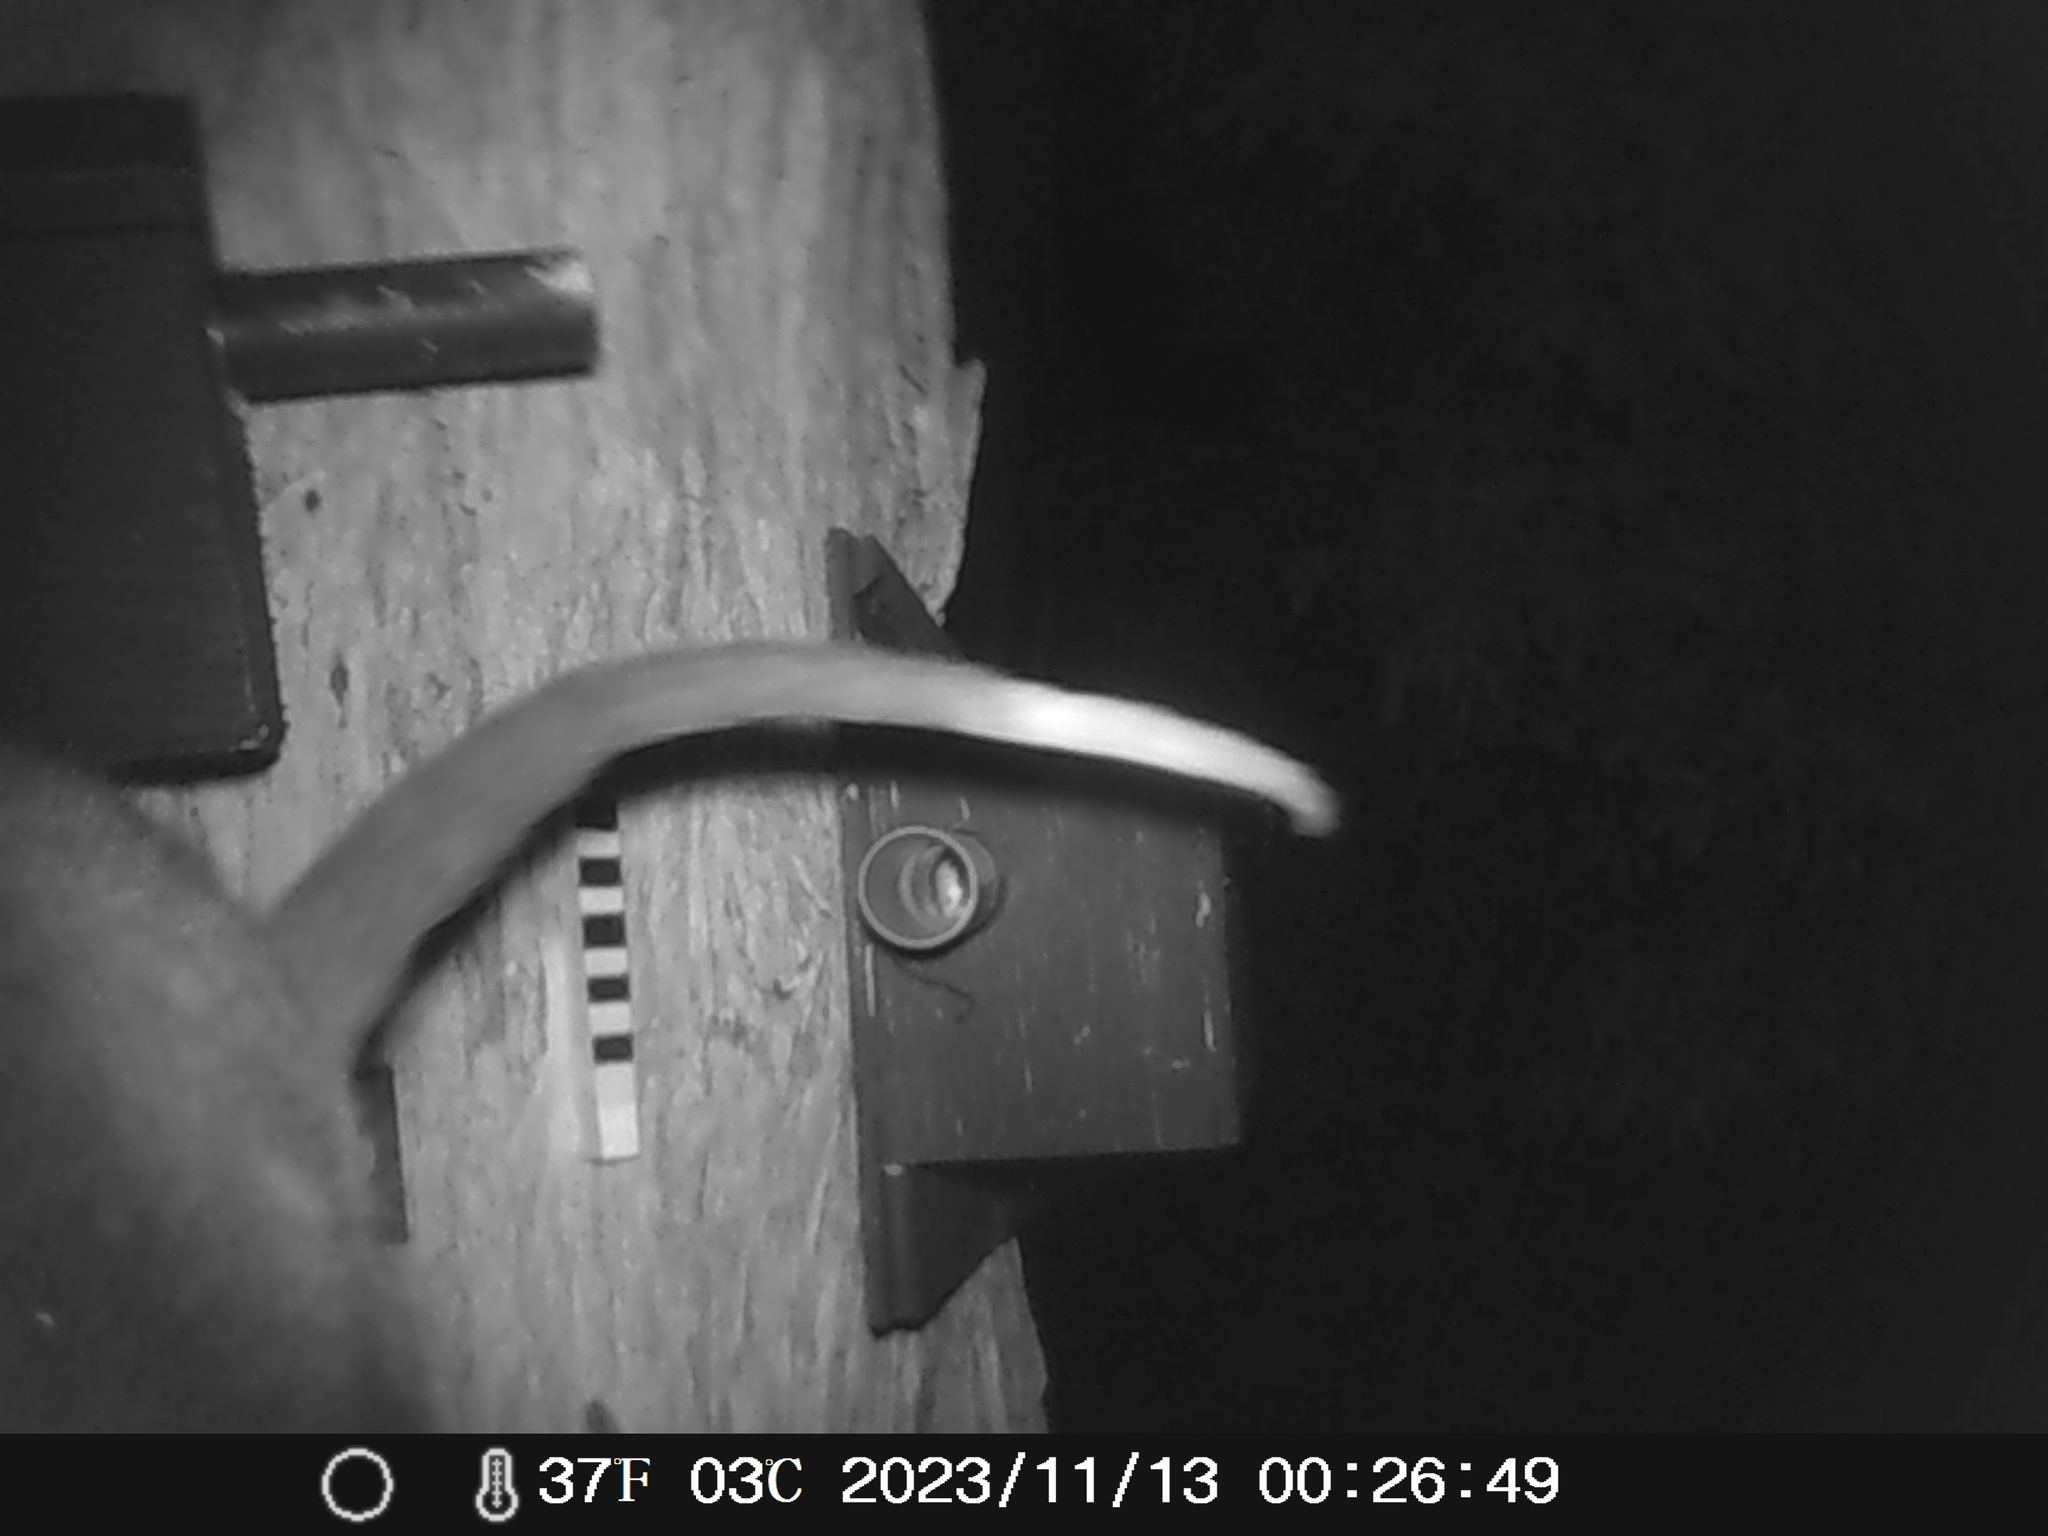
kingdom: Animalia
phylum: Chordata
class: Mammalia
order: Diprotodontia
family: Pseudocheiridae
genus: Pseudocheirus
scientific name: Pseudocheirus peregrinus
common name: Common ringtail possum
